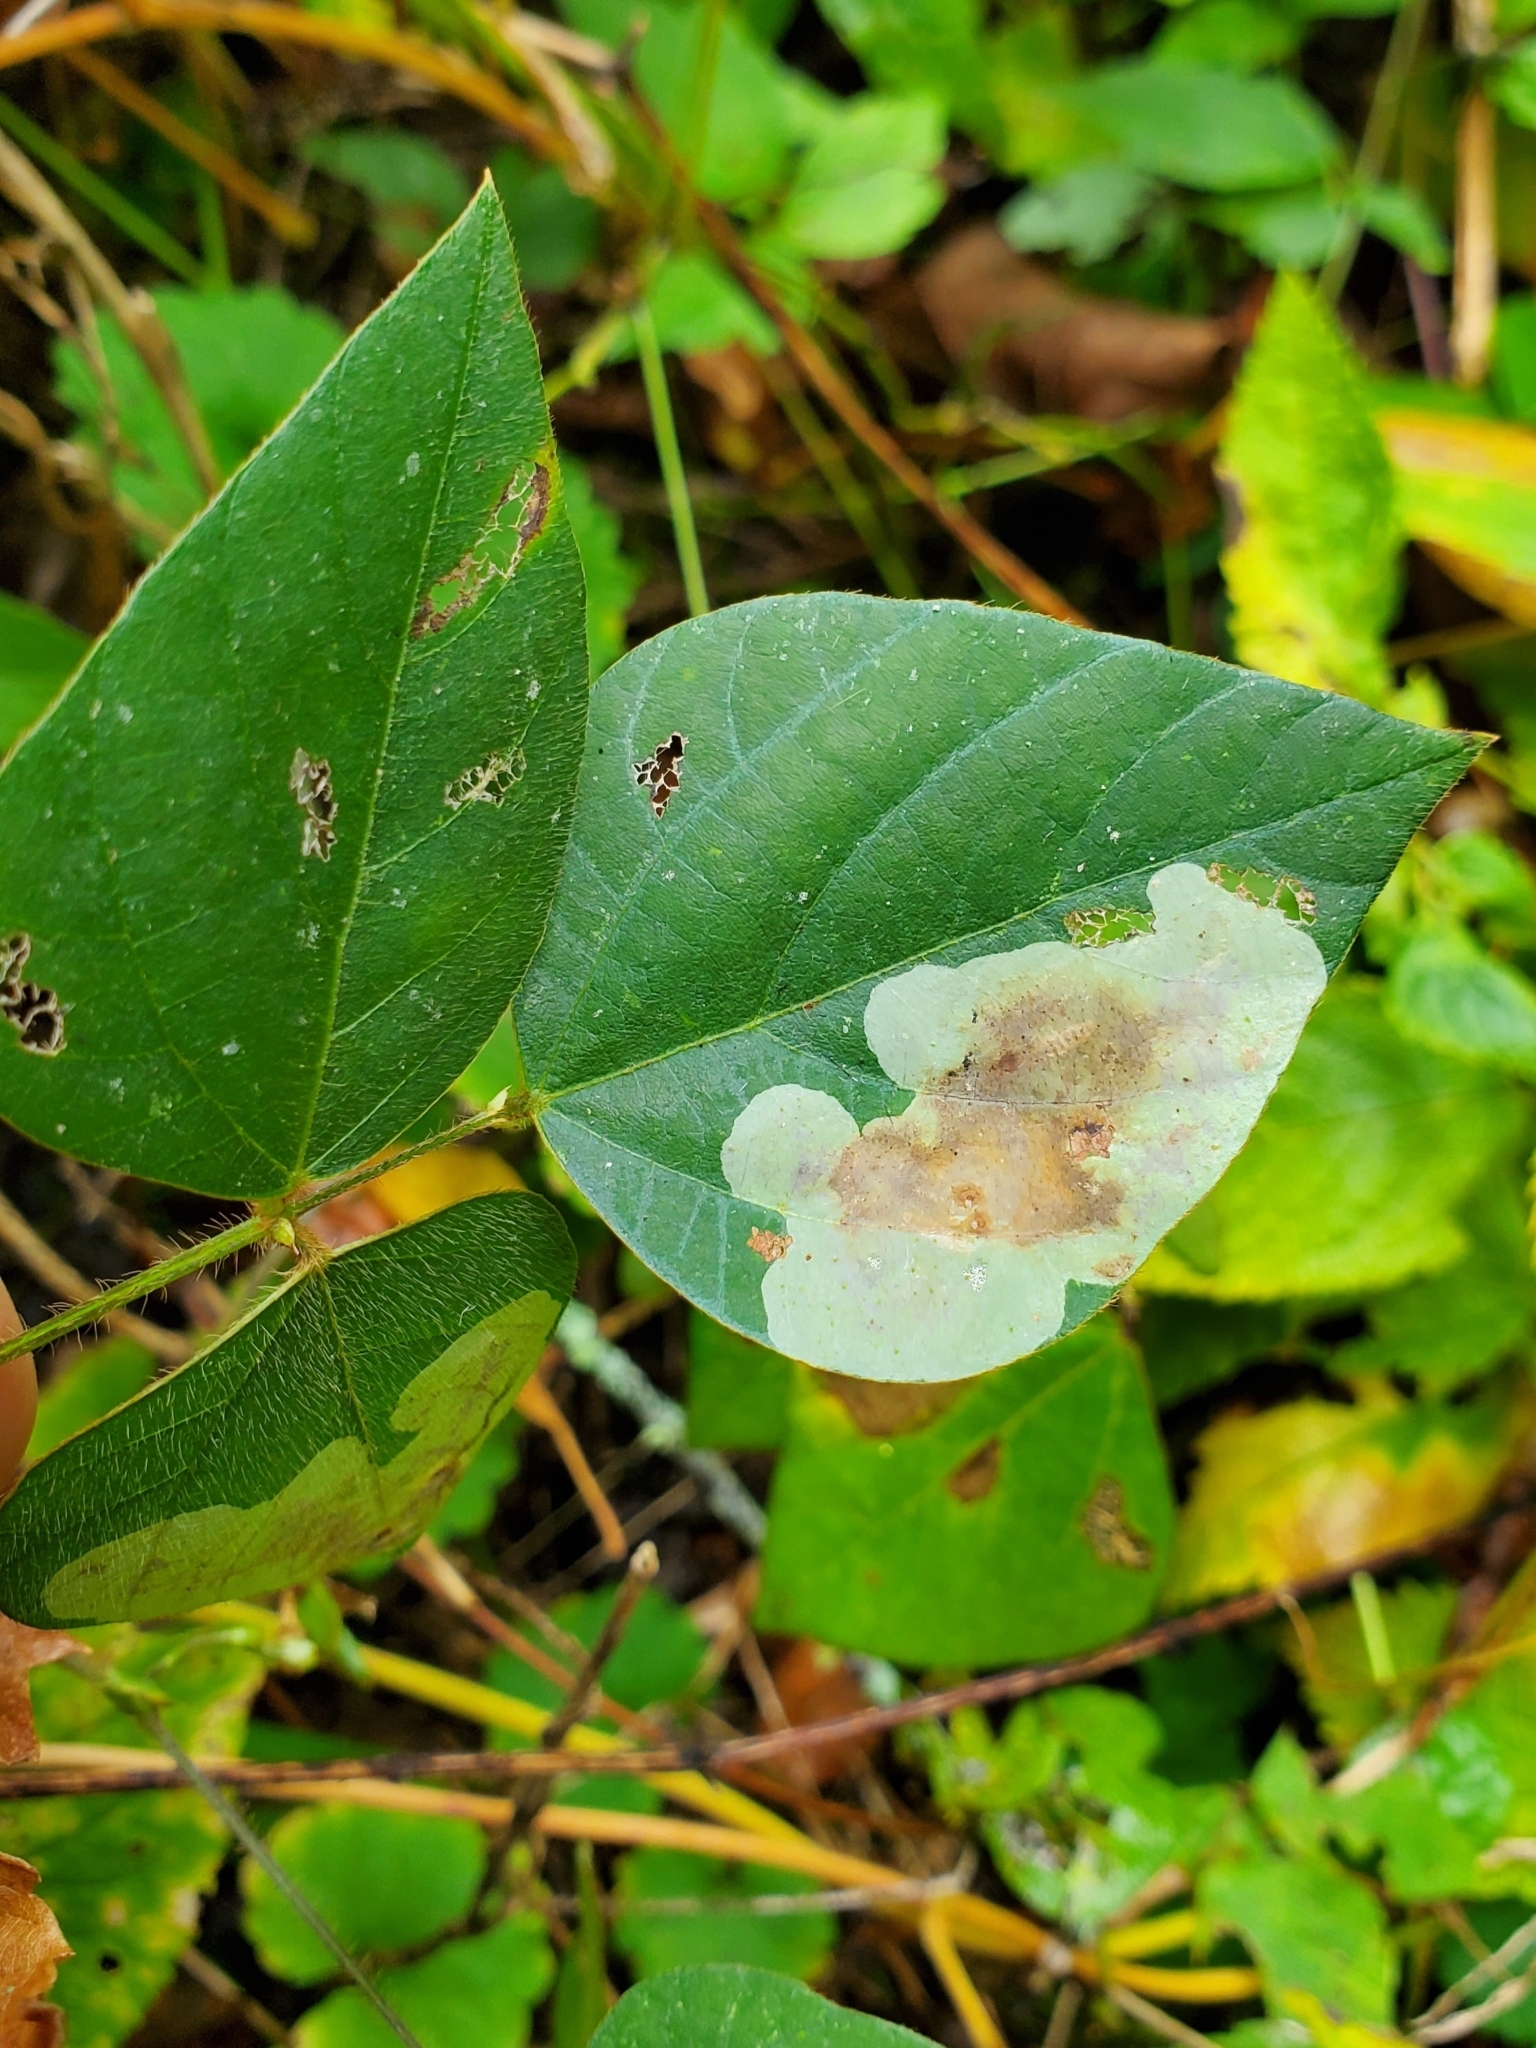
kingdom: Animalia
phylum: Arthropoda
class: Insecta
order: Lepidoptera
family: Gracillariidae
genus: Leucanthiza
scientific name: Leucanthiza amphicarpeaefoliella
